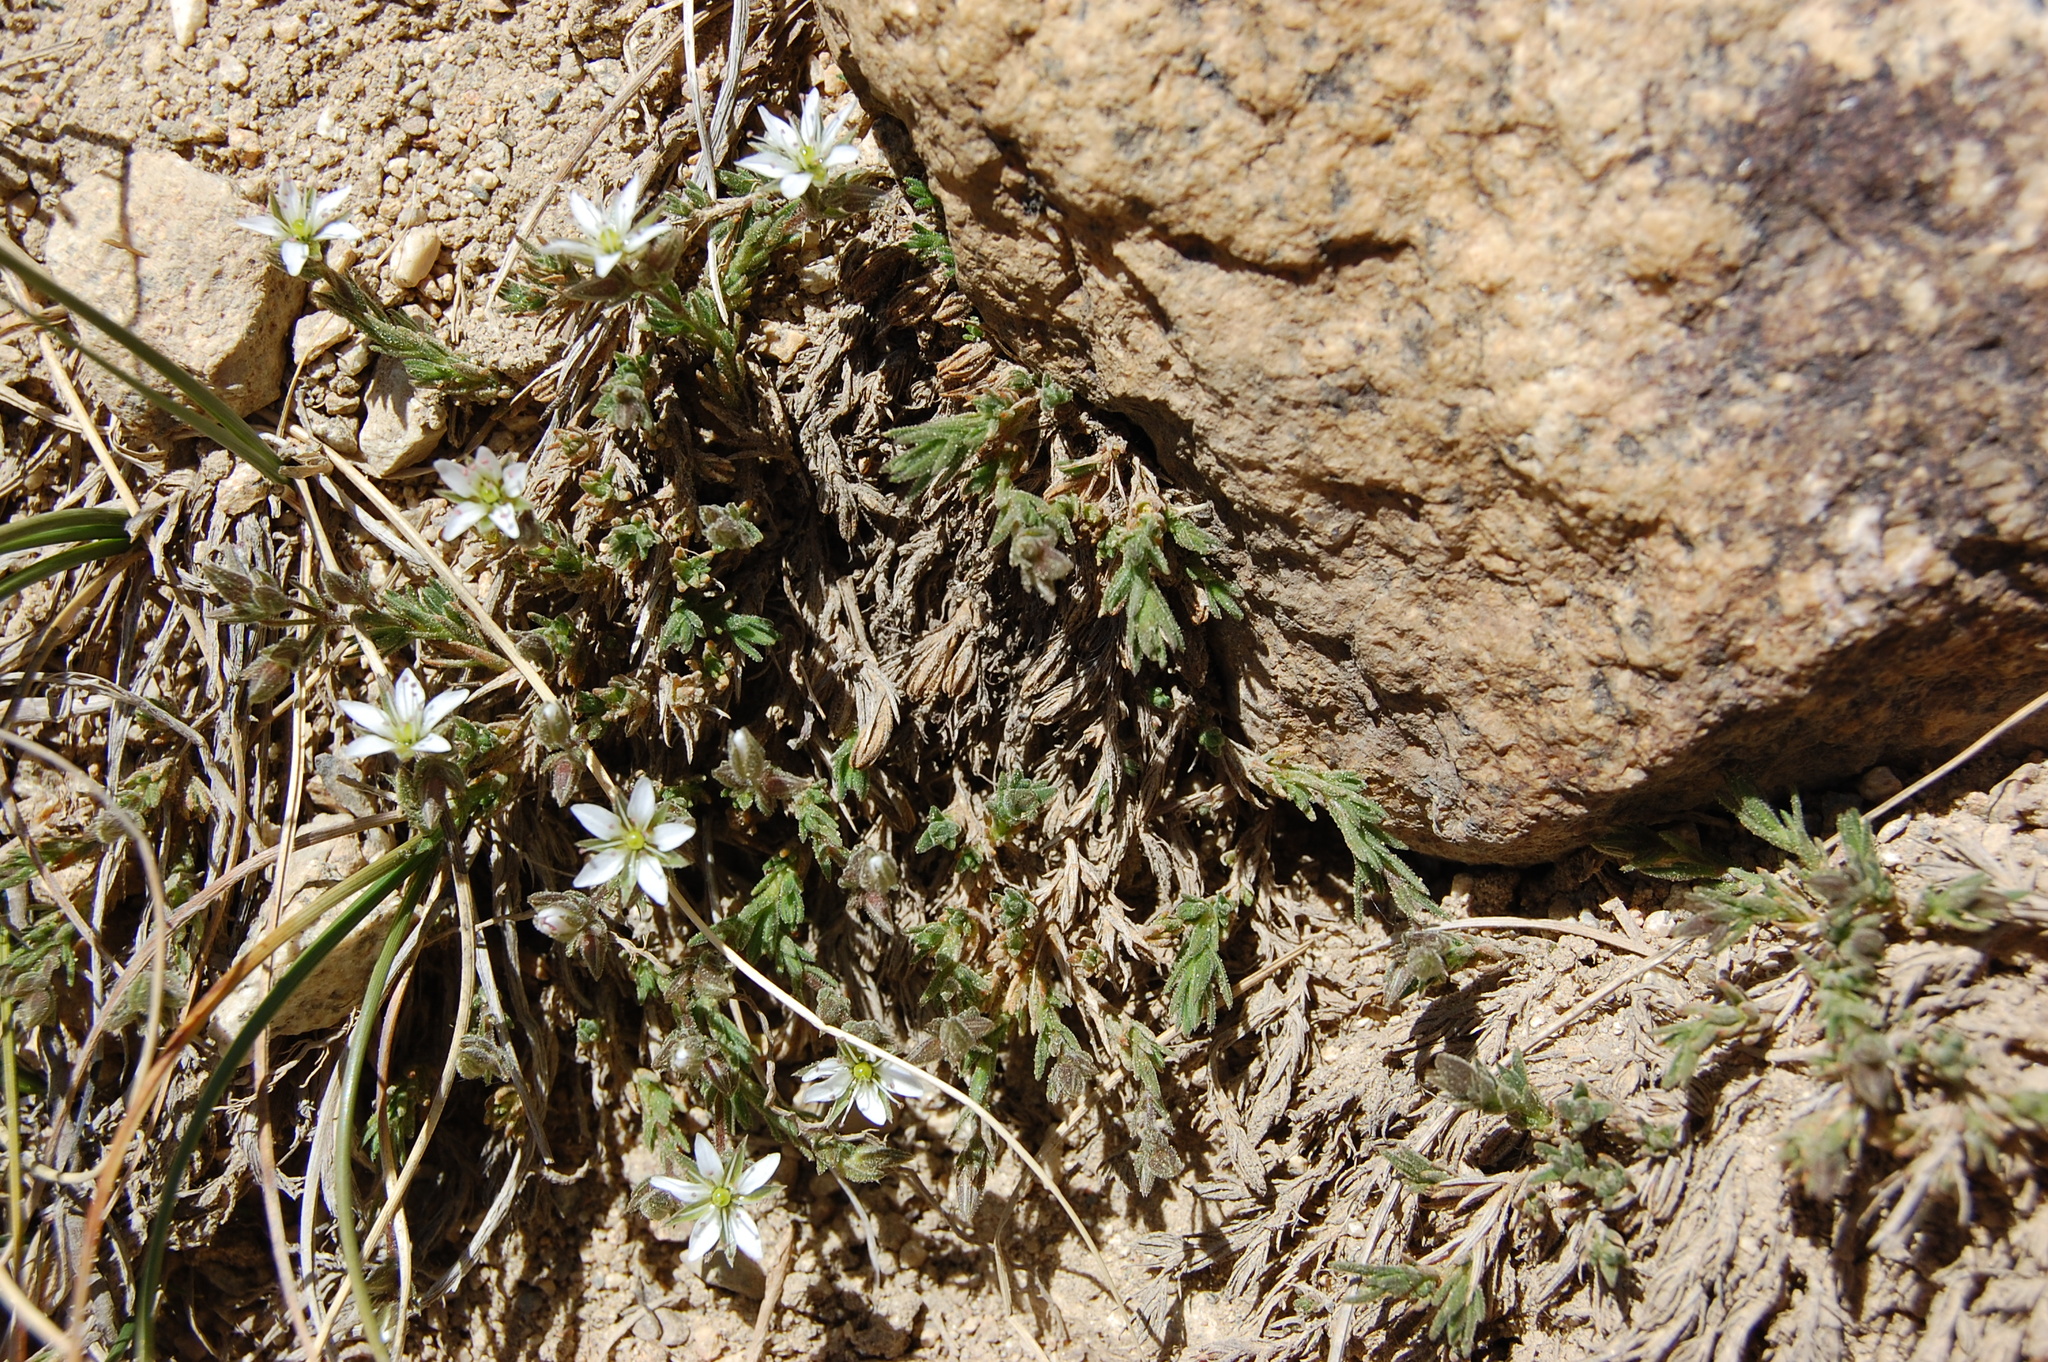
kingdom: Plantae
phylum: Tracheophyta
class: Magnoliopsida
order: Caryophyllales
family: Caryophyllaceae
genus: Sabulina
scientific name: Sabulina nuttallii
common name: Nuttall's stitchwort
